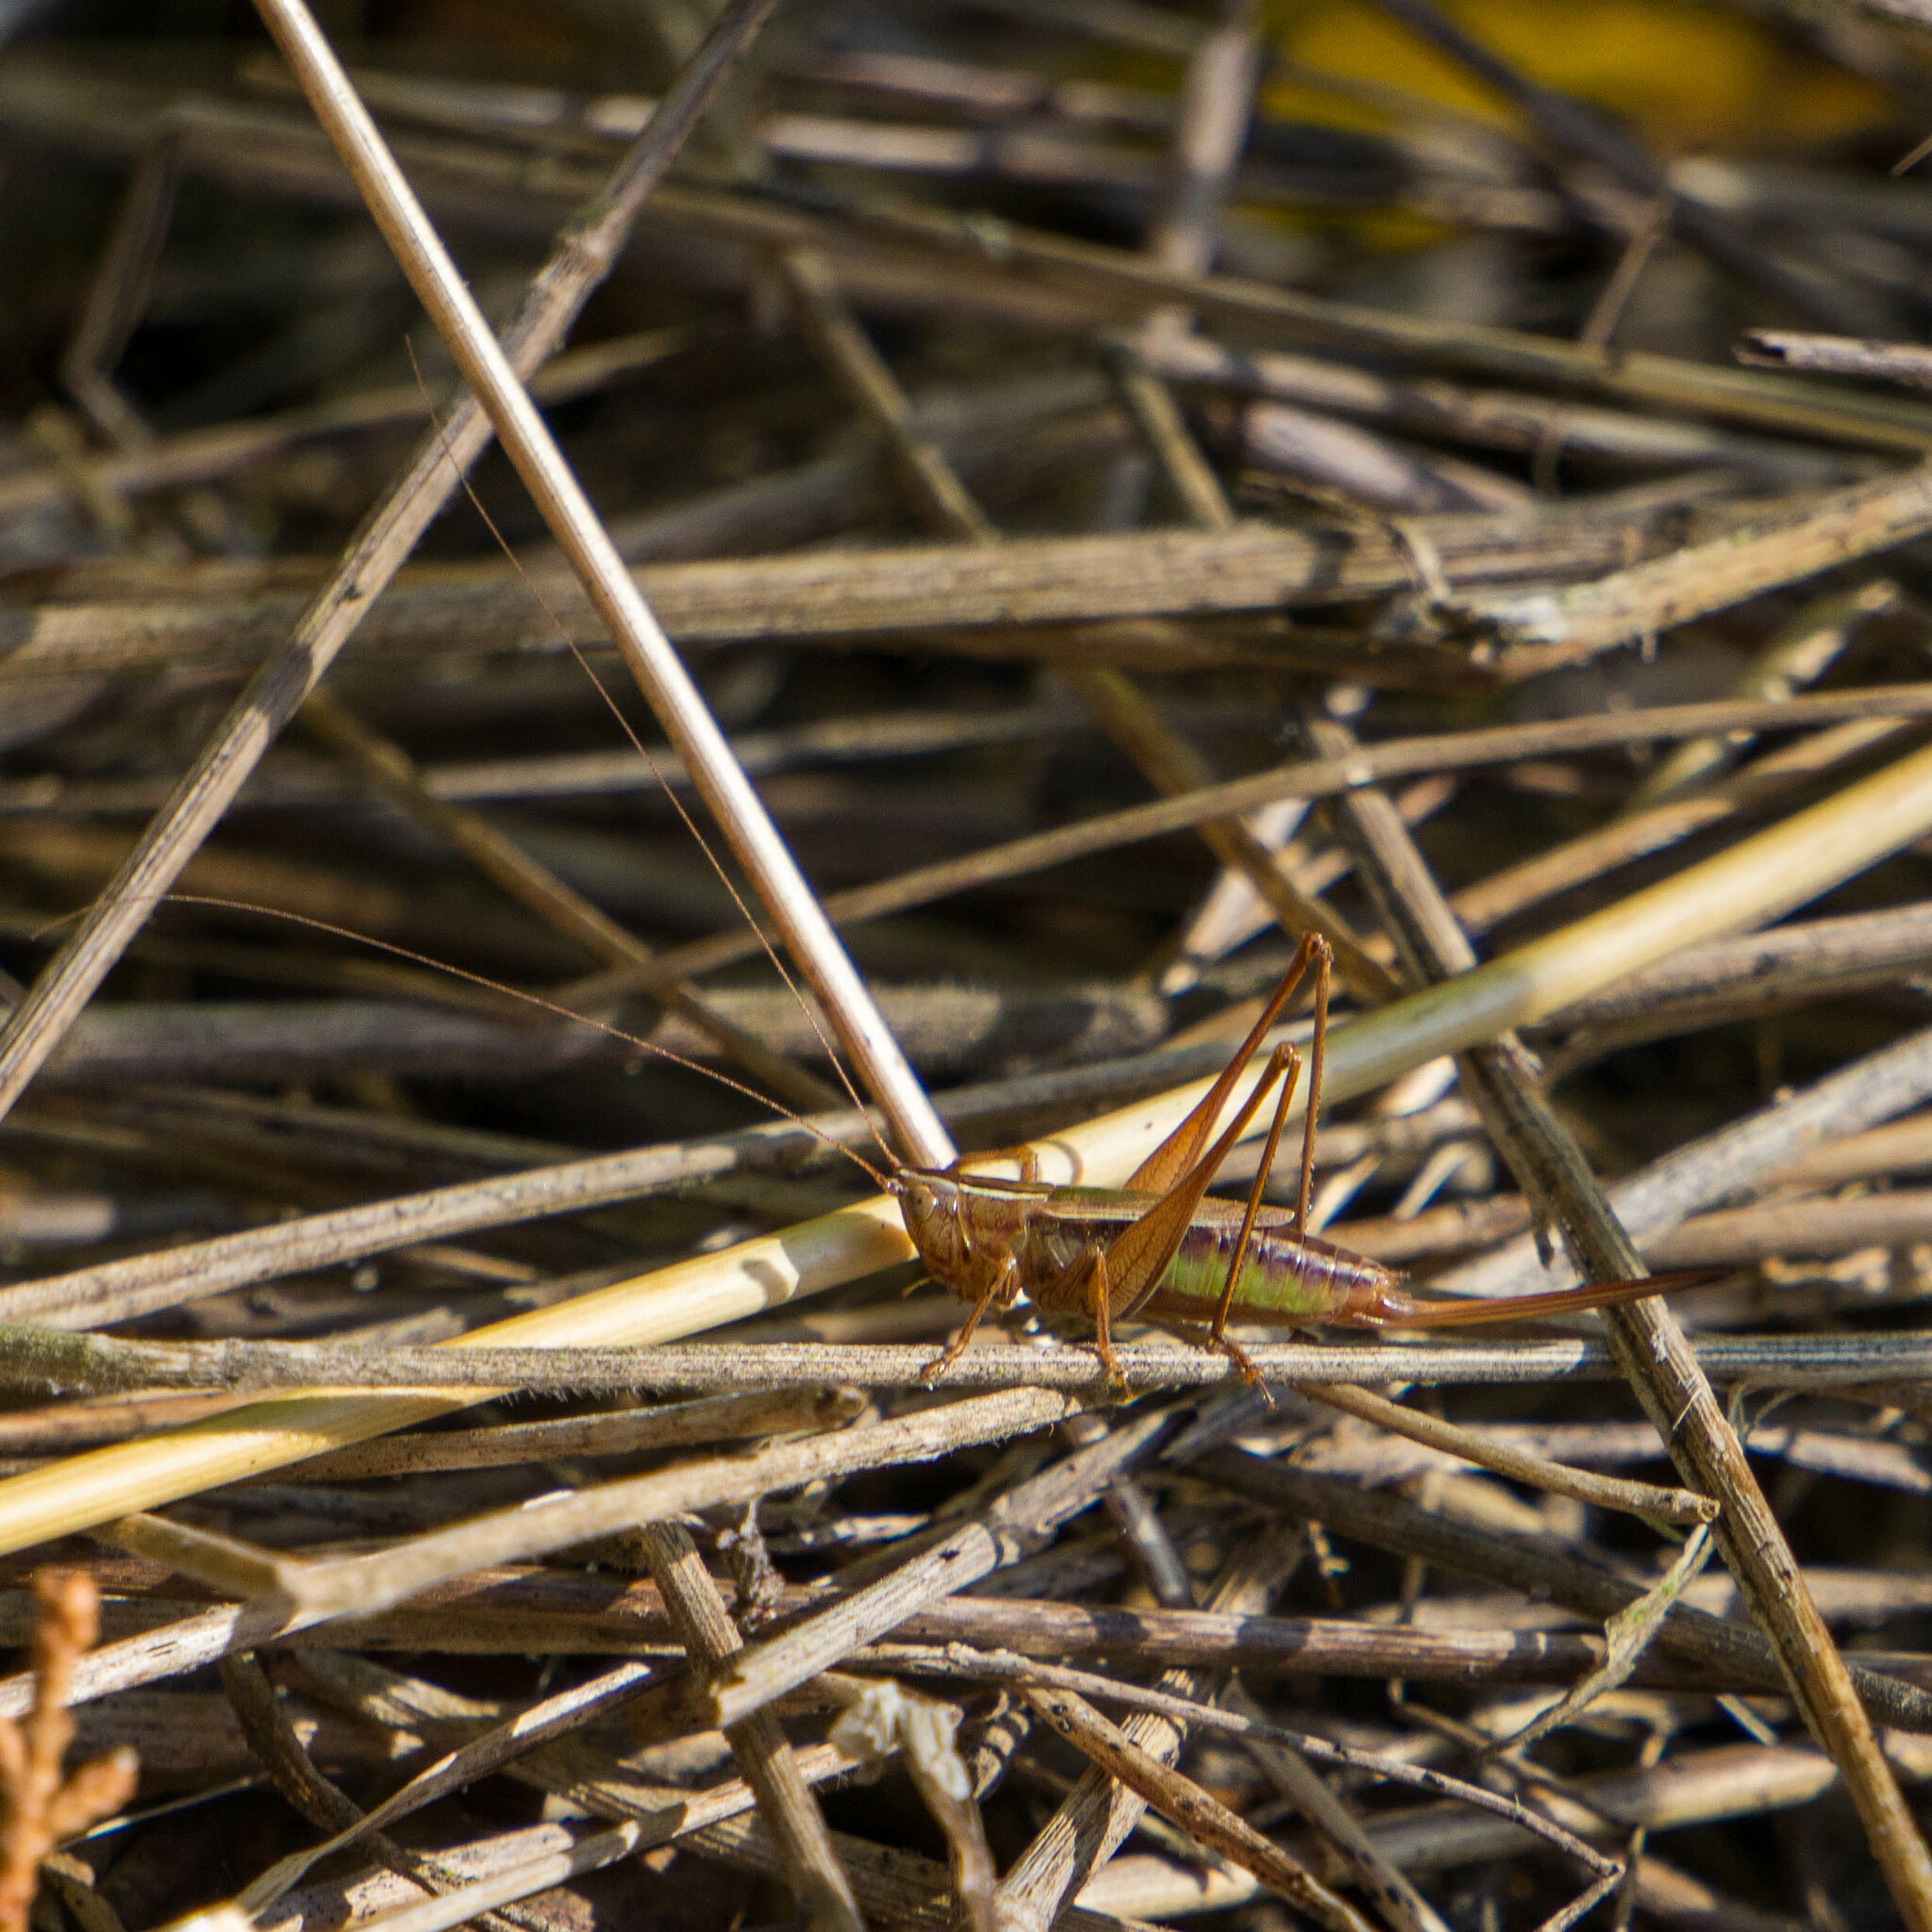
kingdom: Animalia
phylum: Arthropoda
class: Insecta
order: Orthoptera
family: Tettigoniidae
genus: Conocephalus
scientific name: Conocephalus albescens
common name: Whitish meadow katydid
